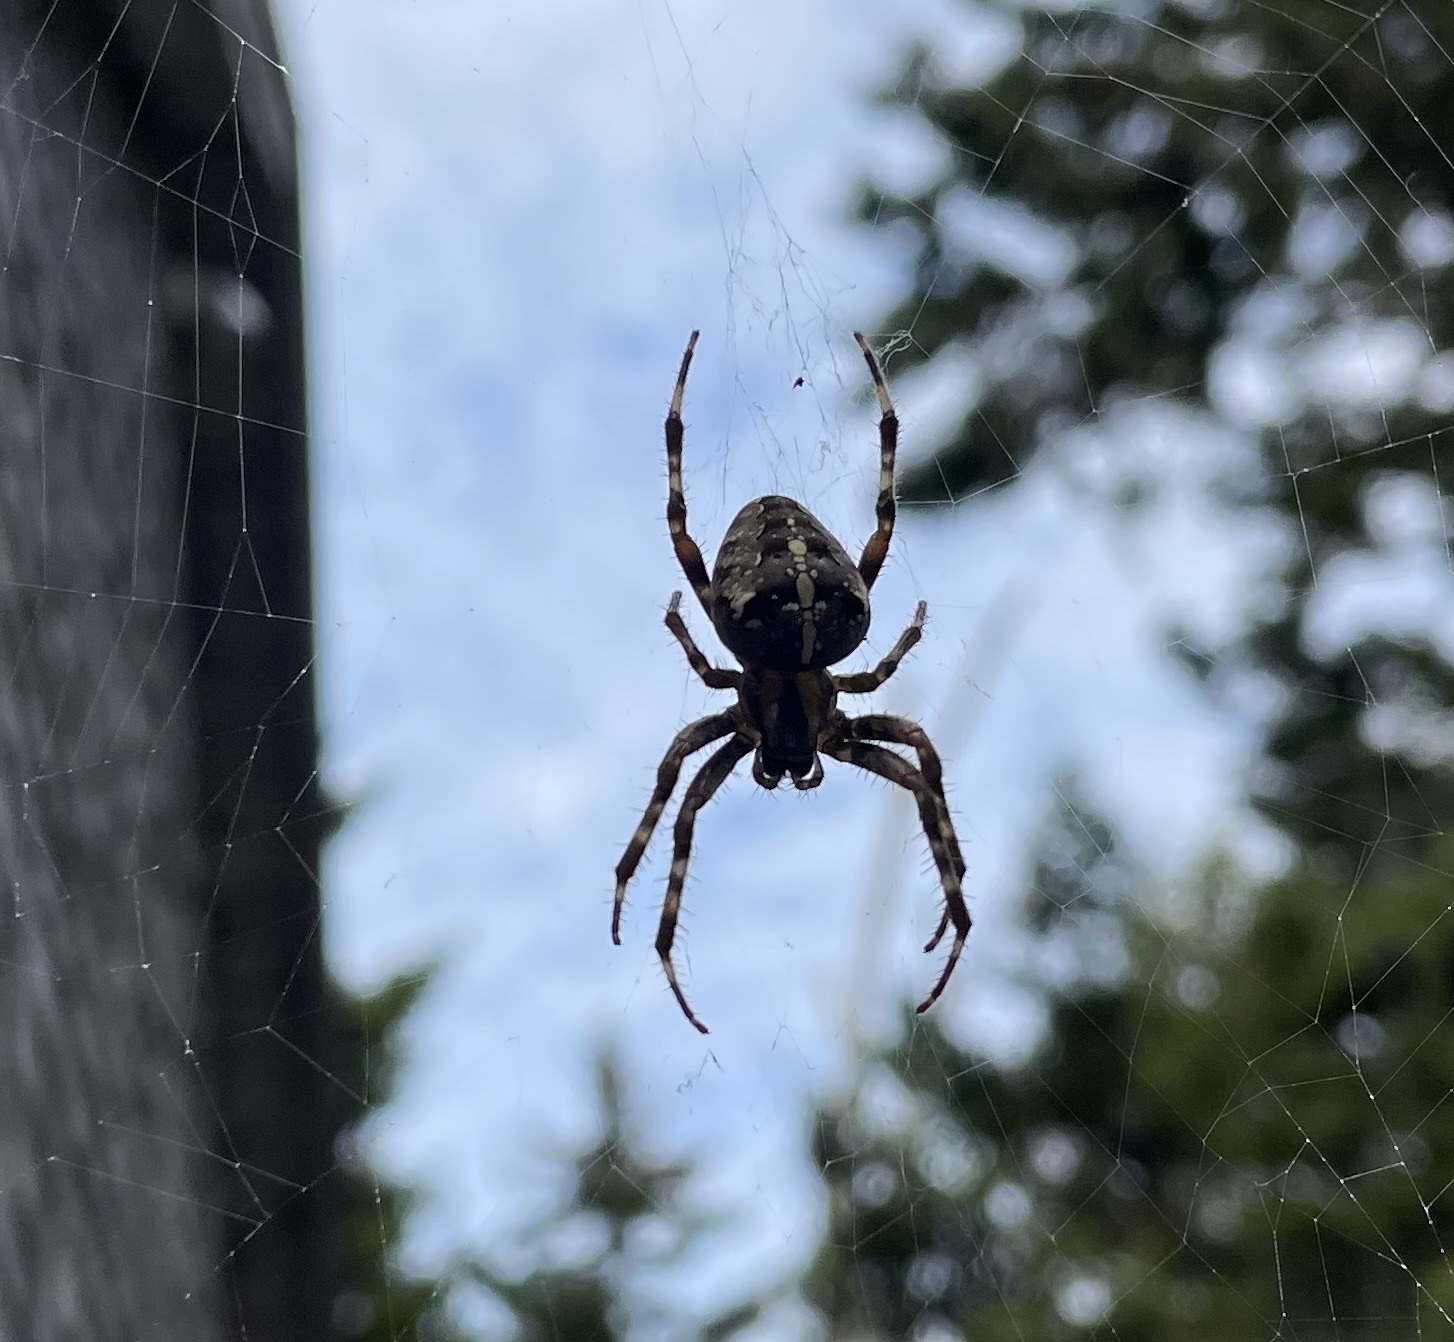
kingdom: Animalia
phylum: Arthropoda
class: Arachnida
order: Araneae
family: Araneidae
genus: Araneus
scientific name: Araneus diadematus
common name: Cross orbweaver
